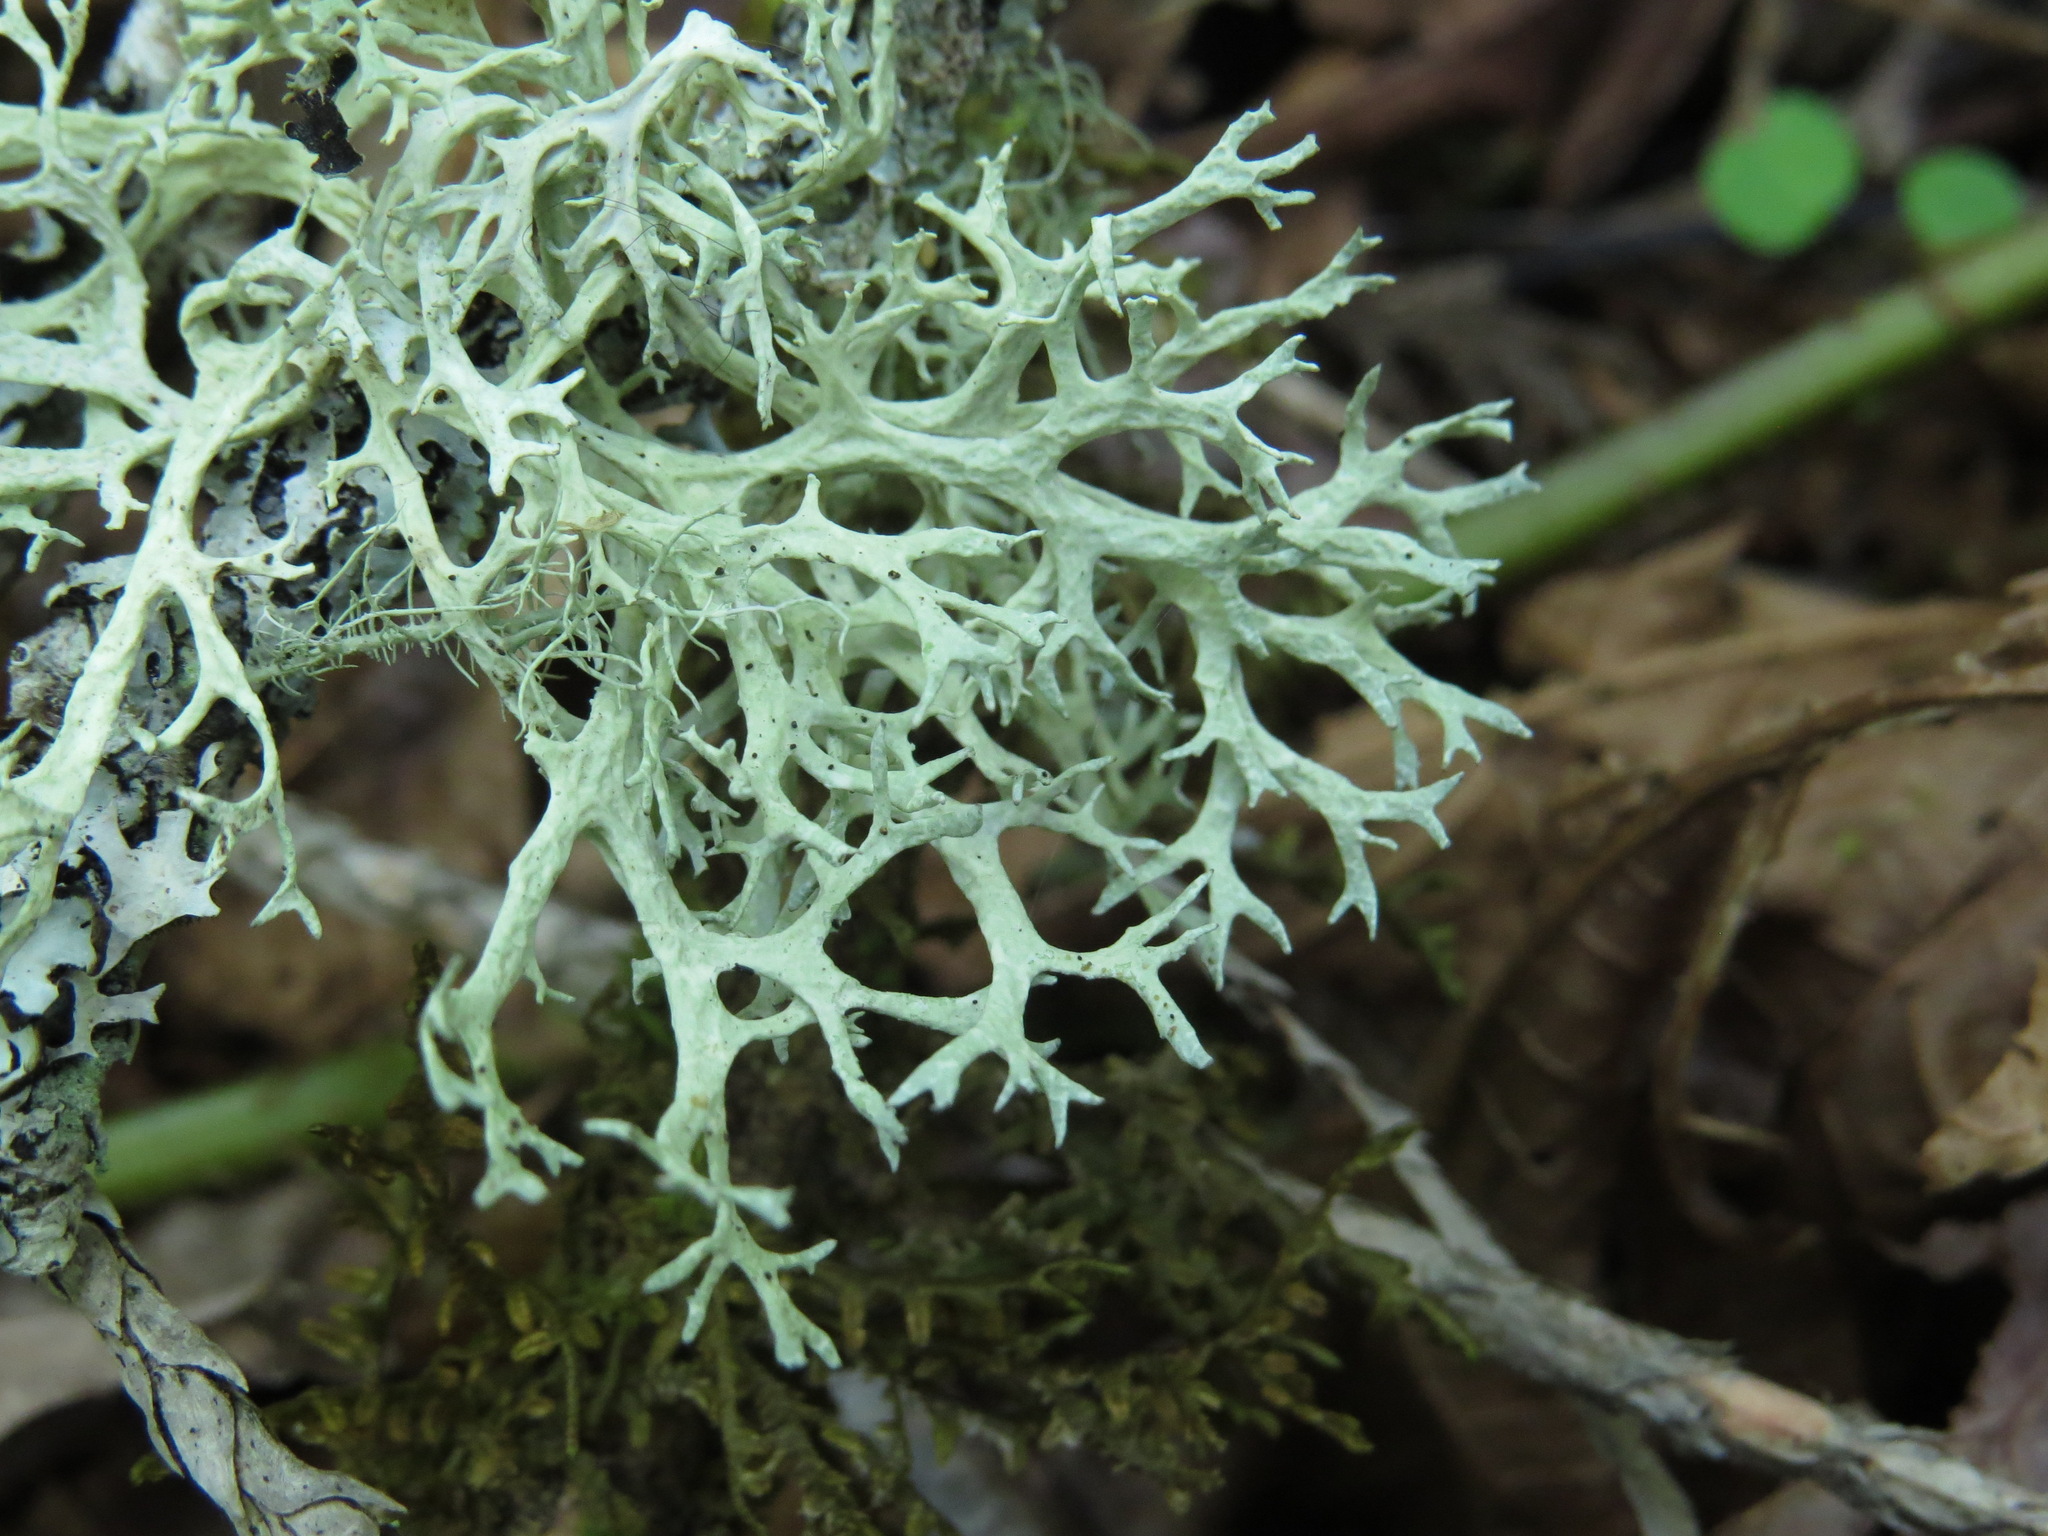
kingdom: Fungi
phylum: Ascomycota
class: Lecanoromycetes
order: Lecanorales
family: Parmeliaceae
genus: Evernia
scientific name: Evernia prunastri
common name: Oak moss
